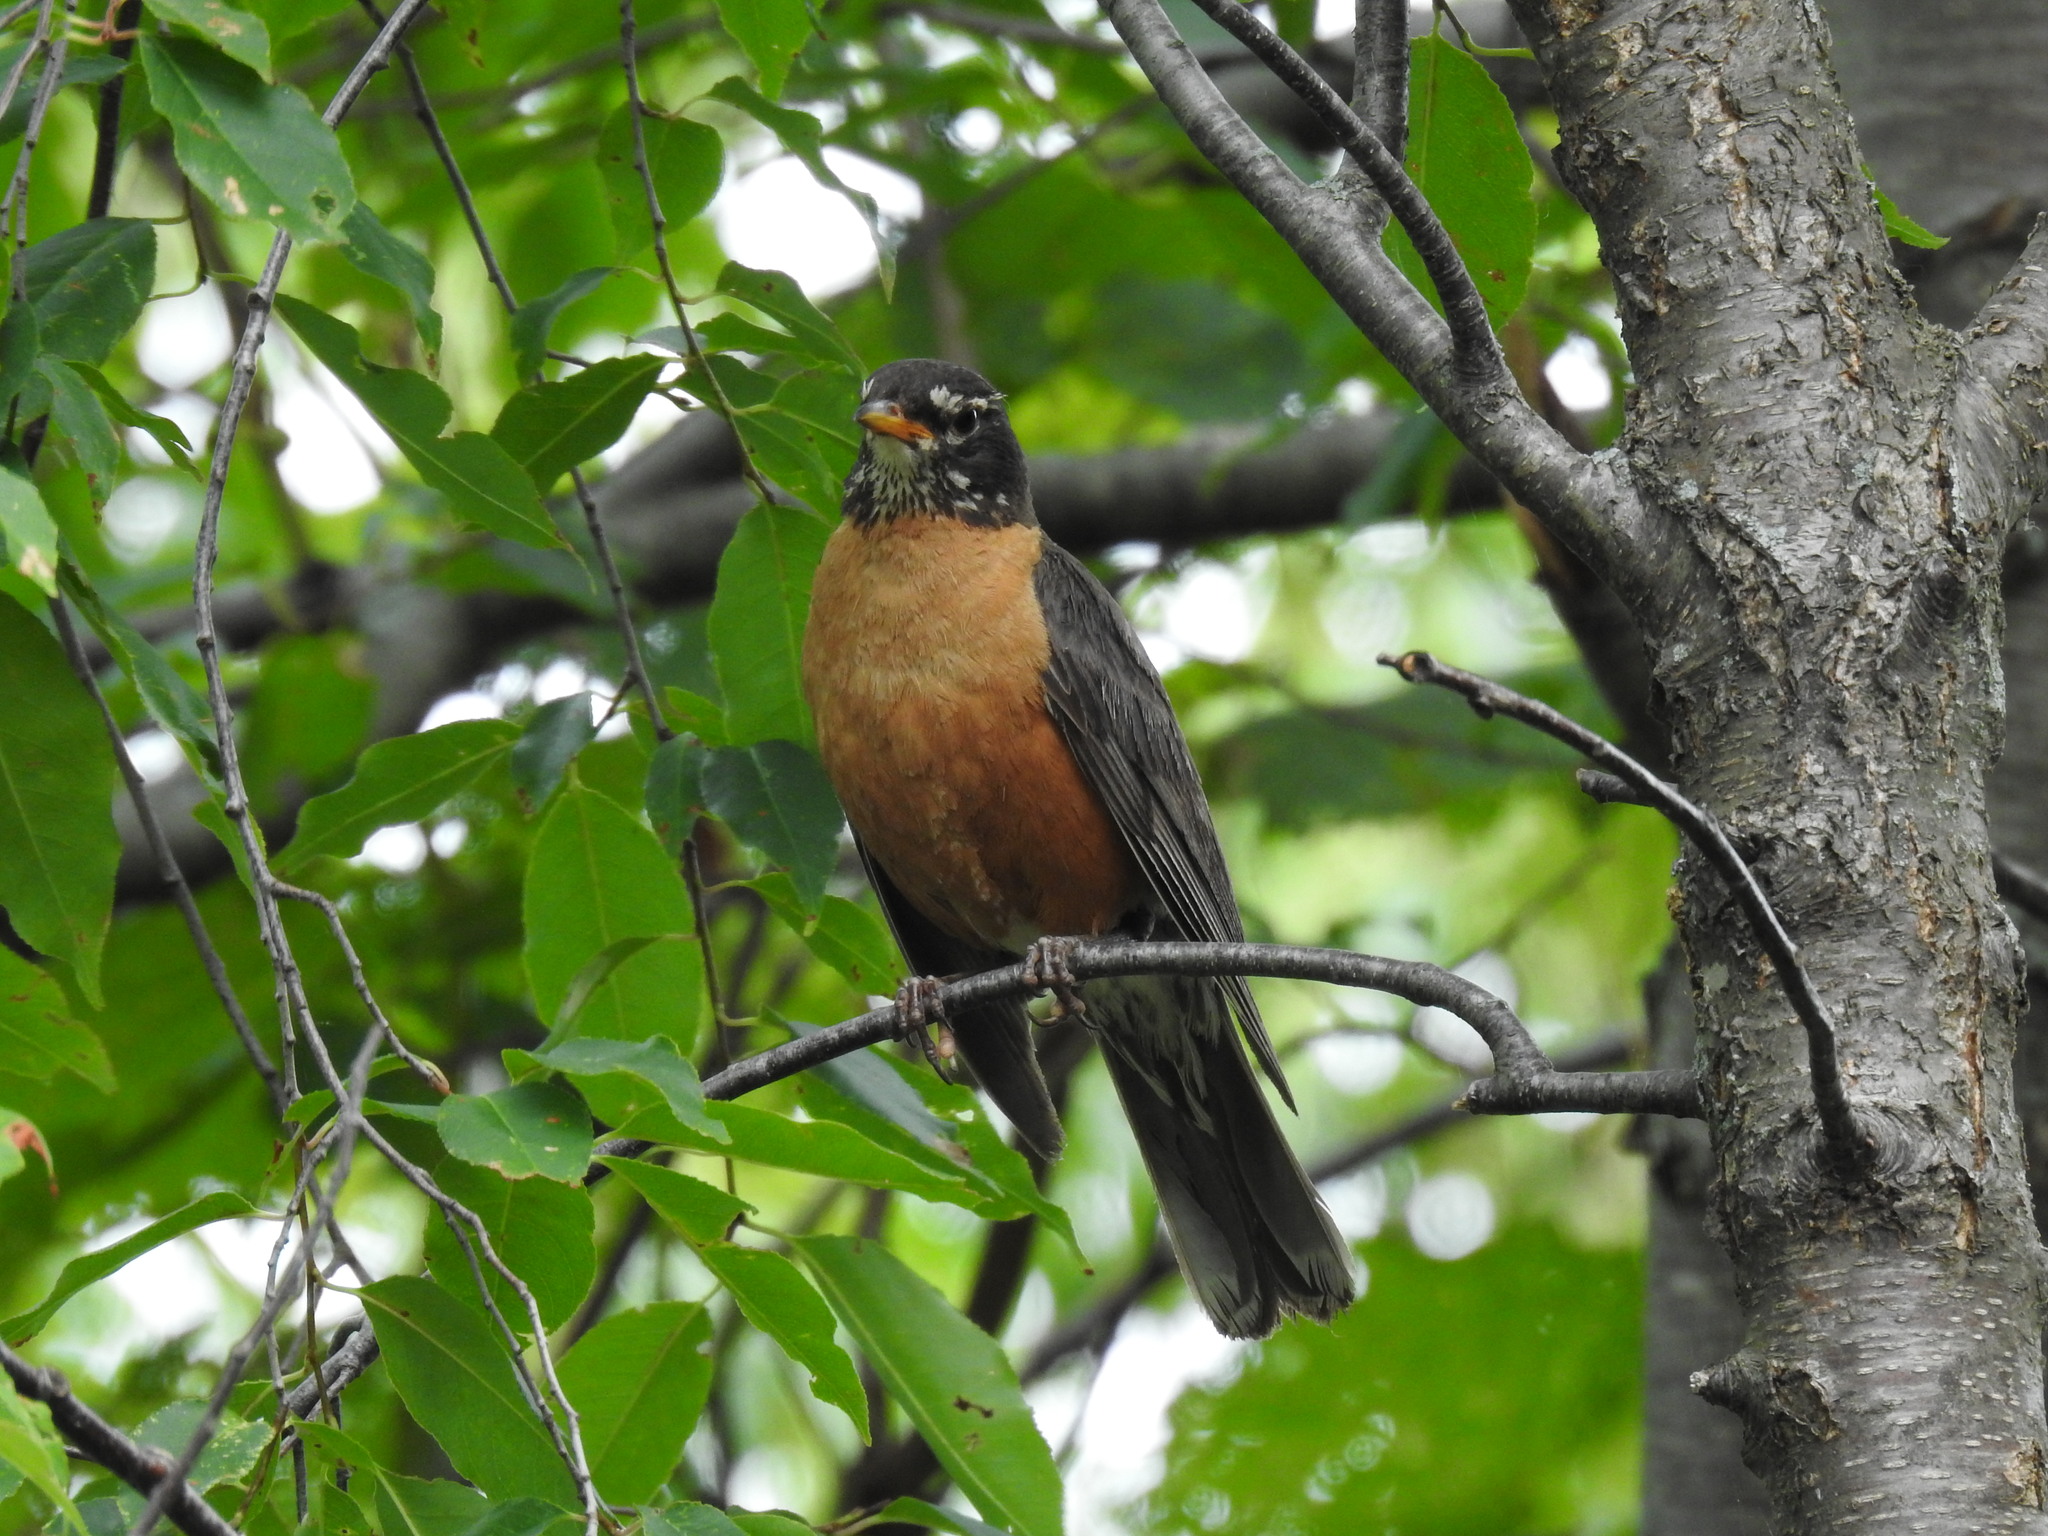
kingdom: Animalia
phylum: Chordata
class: Aves
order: Passeriformes
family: Turdidae
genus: Turdus
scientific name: Turdus migratorius
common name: American robin
